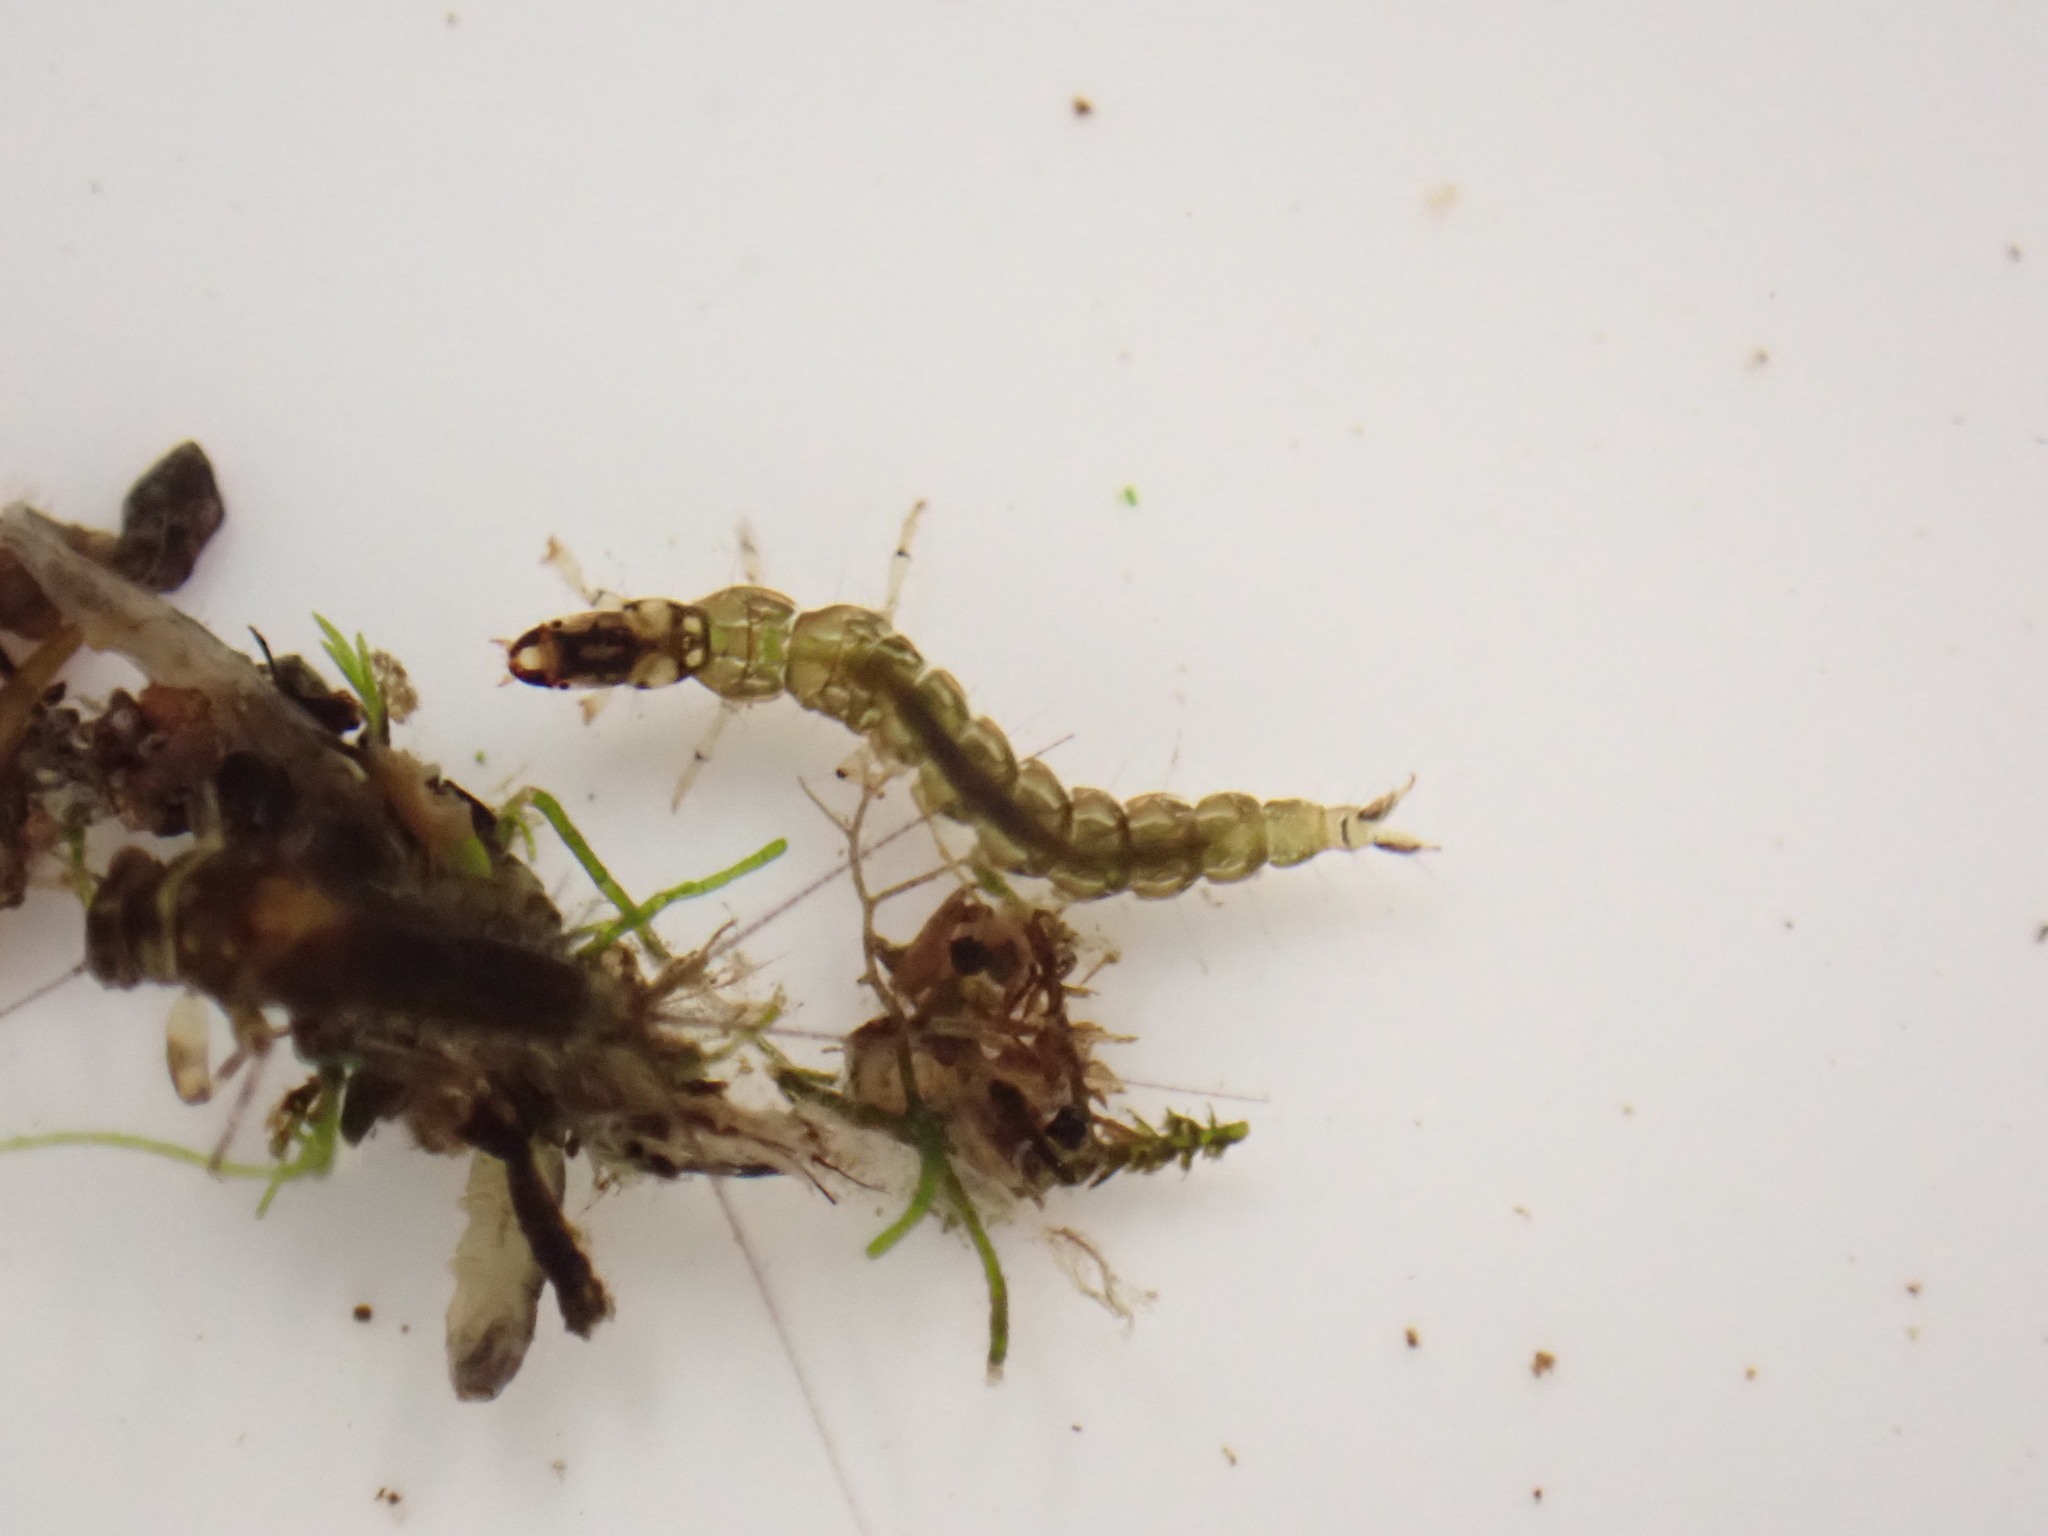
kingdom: Animalia
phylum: Arthropoda
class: Insecta
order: Trichoptera
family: Hydrobiosidae
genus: Neurochorema
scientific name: Neurochorema armstrongi
